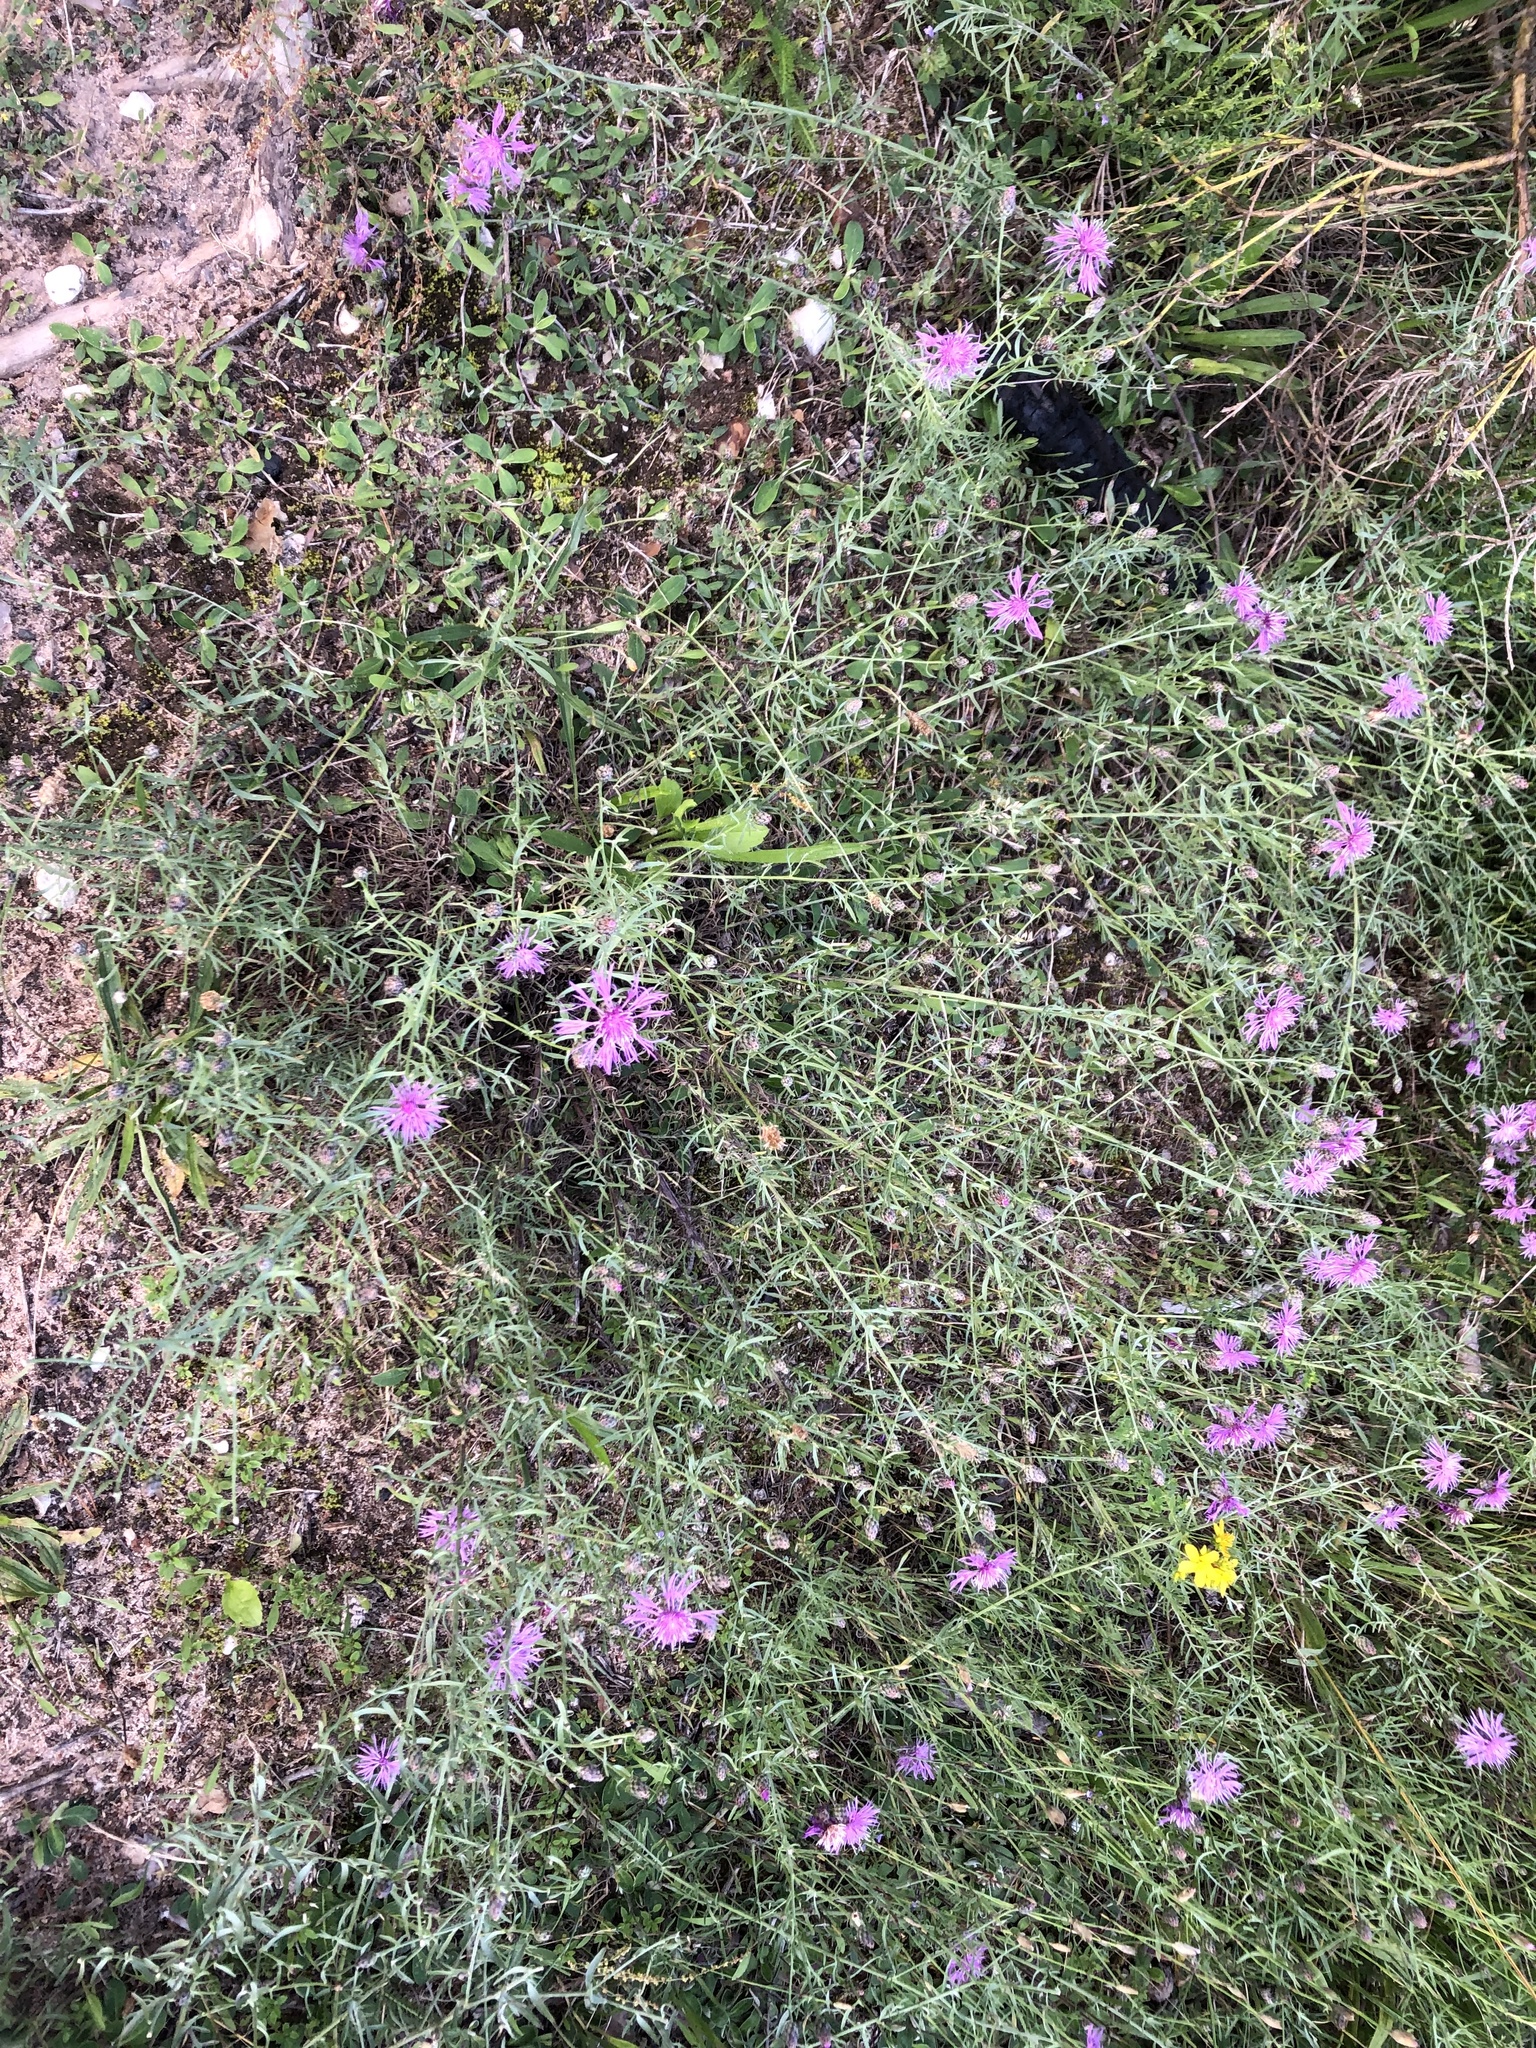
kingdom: Plantae
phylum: Tracheophyta
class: Magnoliopsida
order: Asterales
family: Asteraceae
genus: Centaurea
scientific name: Centaurea stoebe
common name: Spotted knapweed
